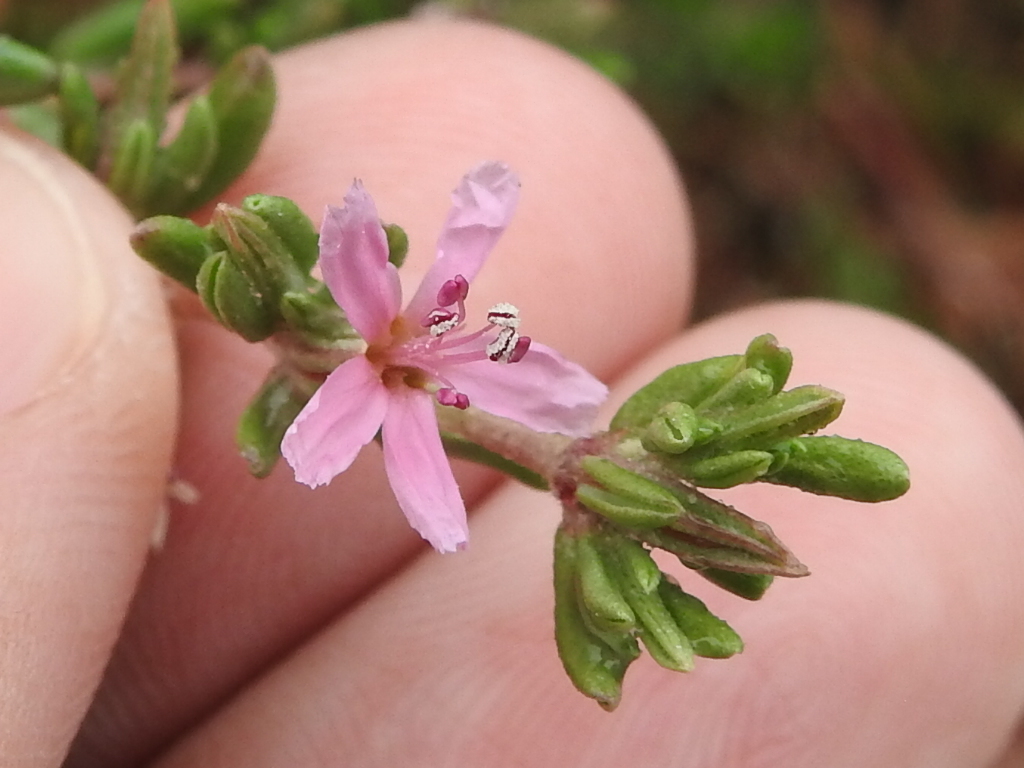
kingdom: Plantae
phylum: Tracheophyta
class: Magnoliopsida
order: Caryophyllales
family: Frankeniaceae
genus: Frankenia
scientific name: Frankenia salina
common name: Alkali seaheath
